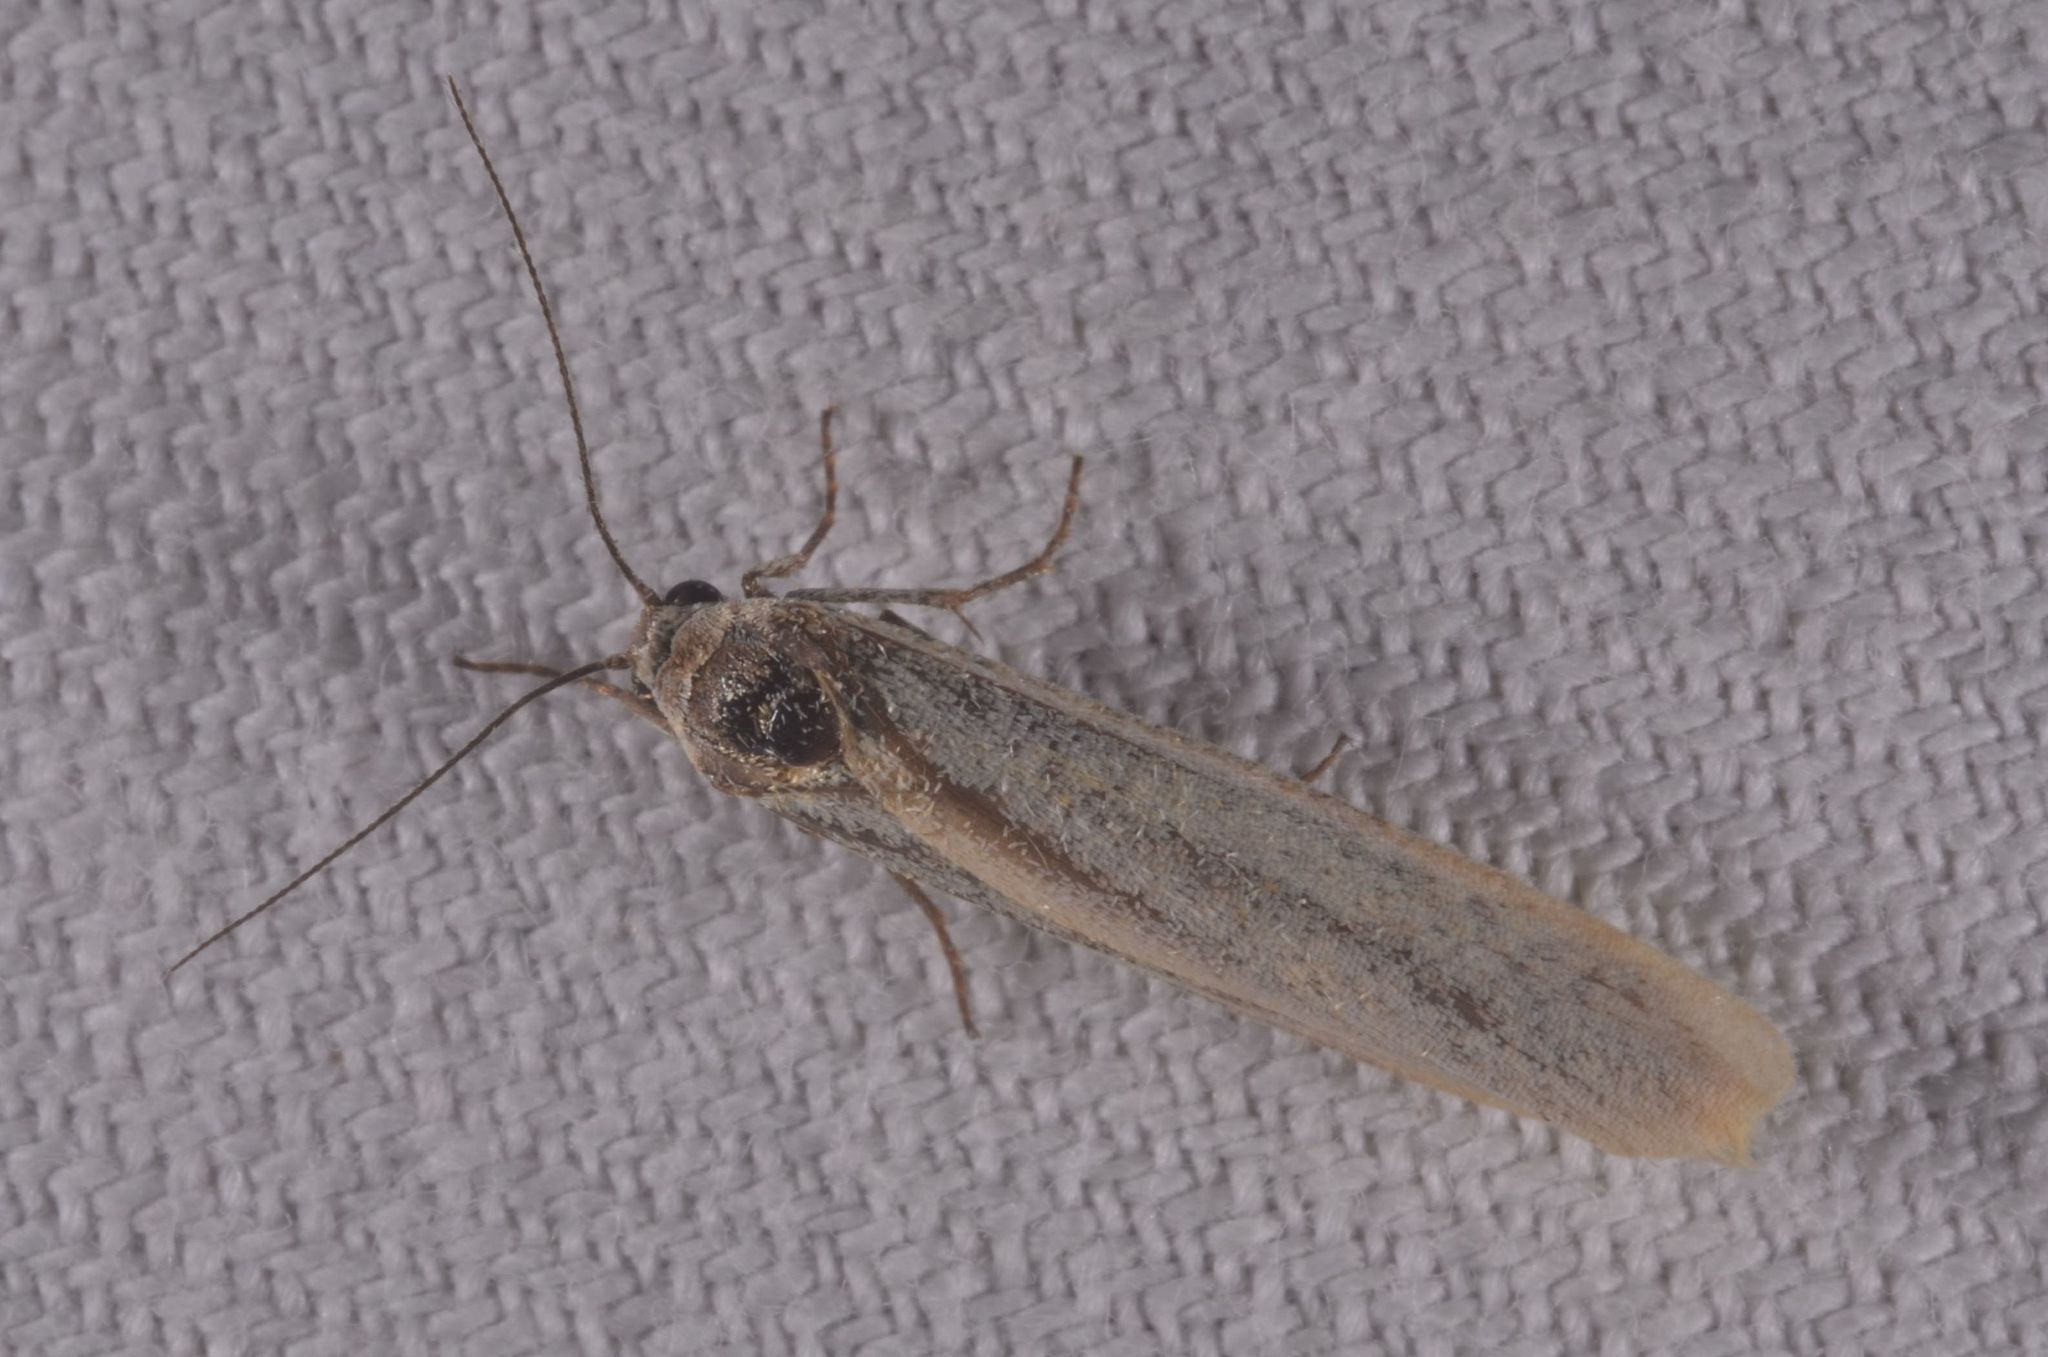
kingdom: Animalia
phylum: Arthropoda
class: Insecta
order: Lepidoptera
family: Erebidae
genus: Indalia
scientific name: Indalia lutarella
